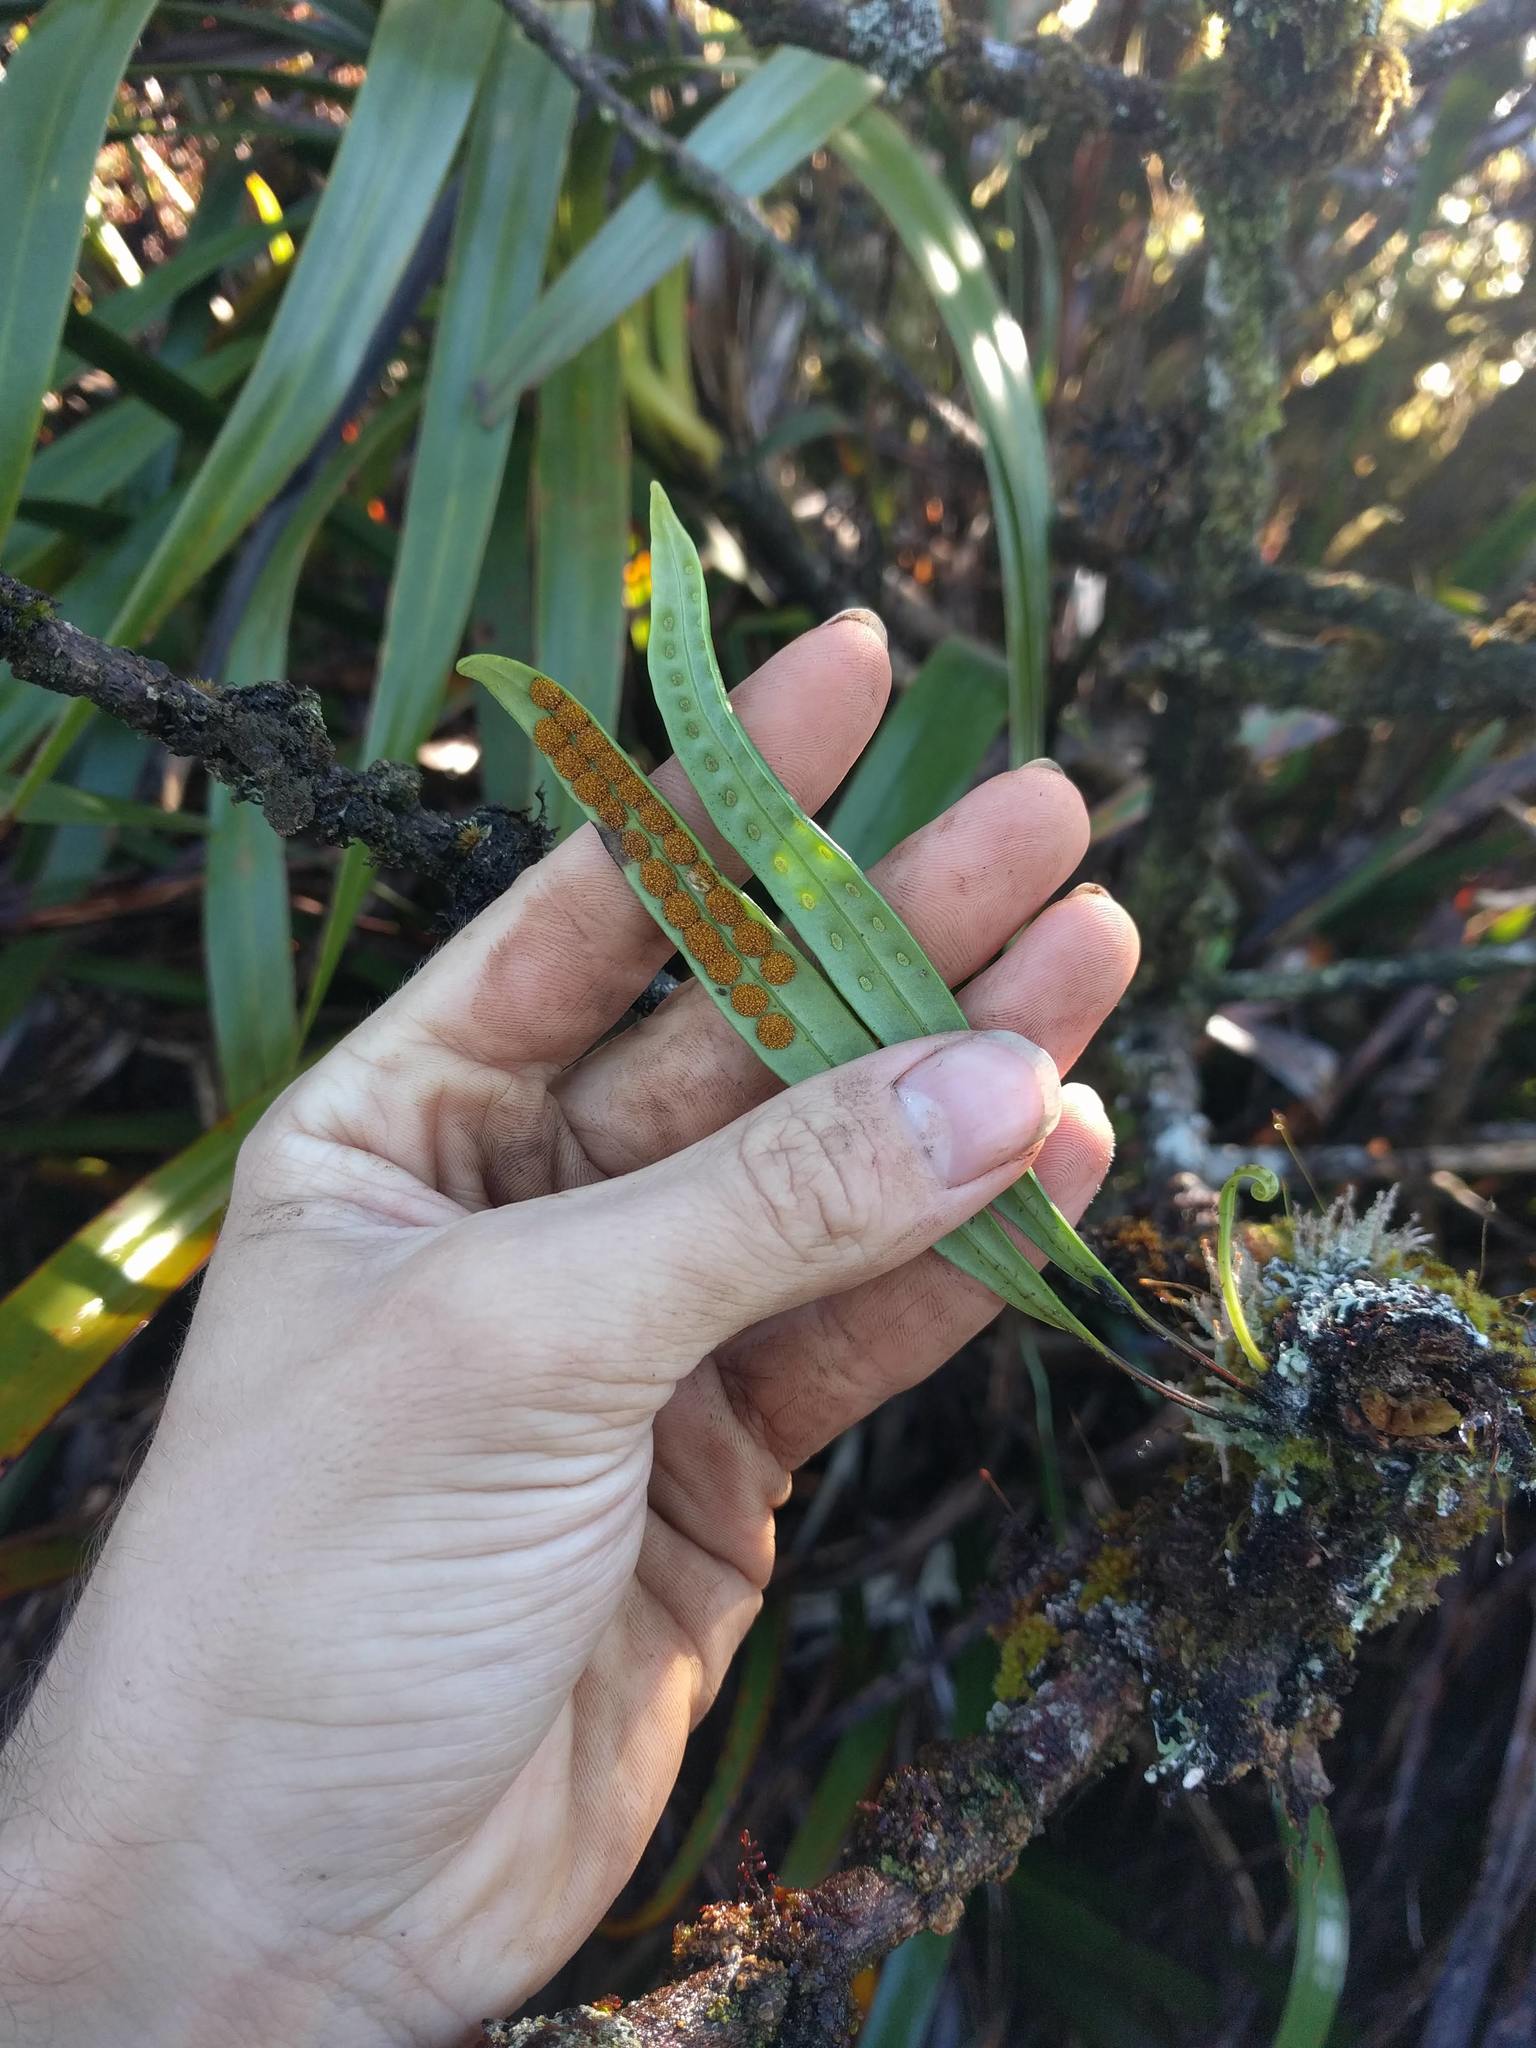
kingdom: Plantae
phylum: Tracheophyta
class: Polypodiopsida
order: Polypodiales
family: Polypodiaceae
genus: Lepisorus
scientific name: Lepisorus thunbergianus
